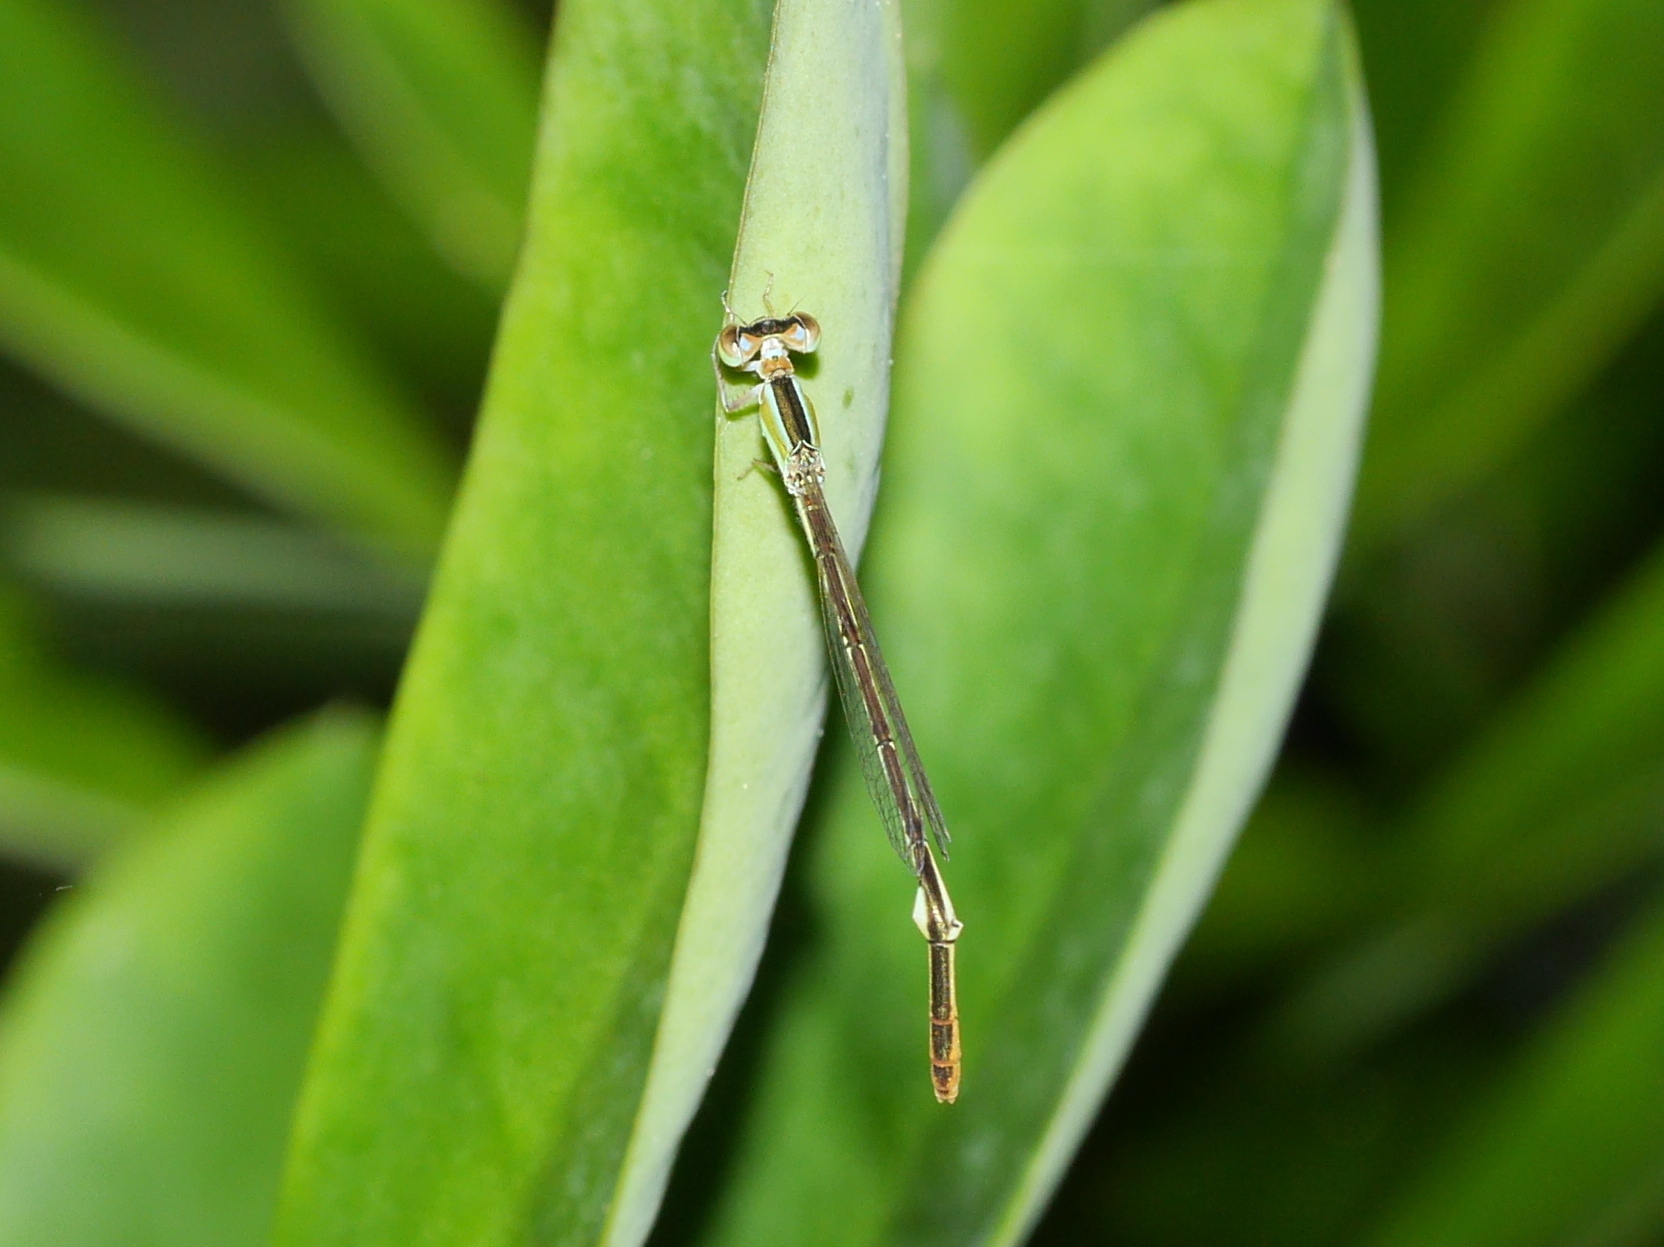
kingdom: Animalia
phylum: Arthropoda
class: Insecta
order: Odonata
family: Coenagrionidae
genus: Agriocnemis
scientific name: Agriocnemis pygmaea
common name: Pygmy wisp
